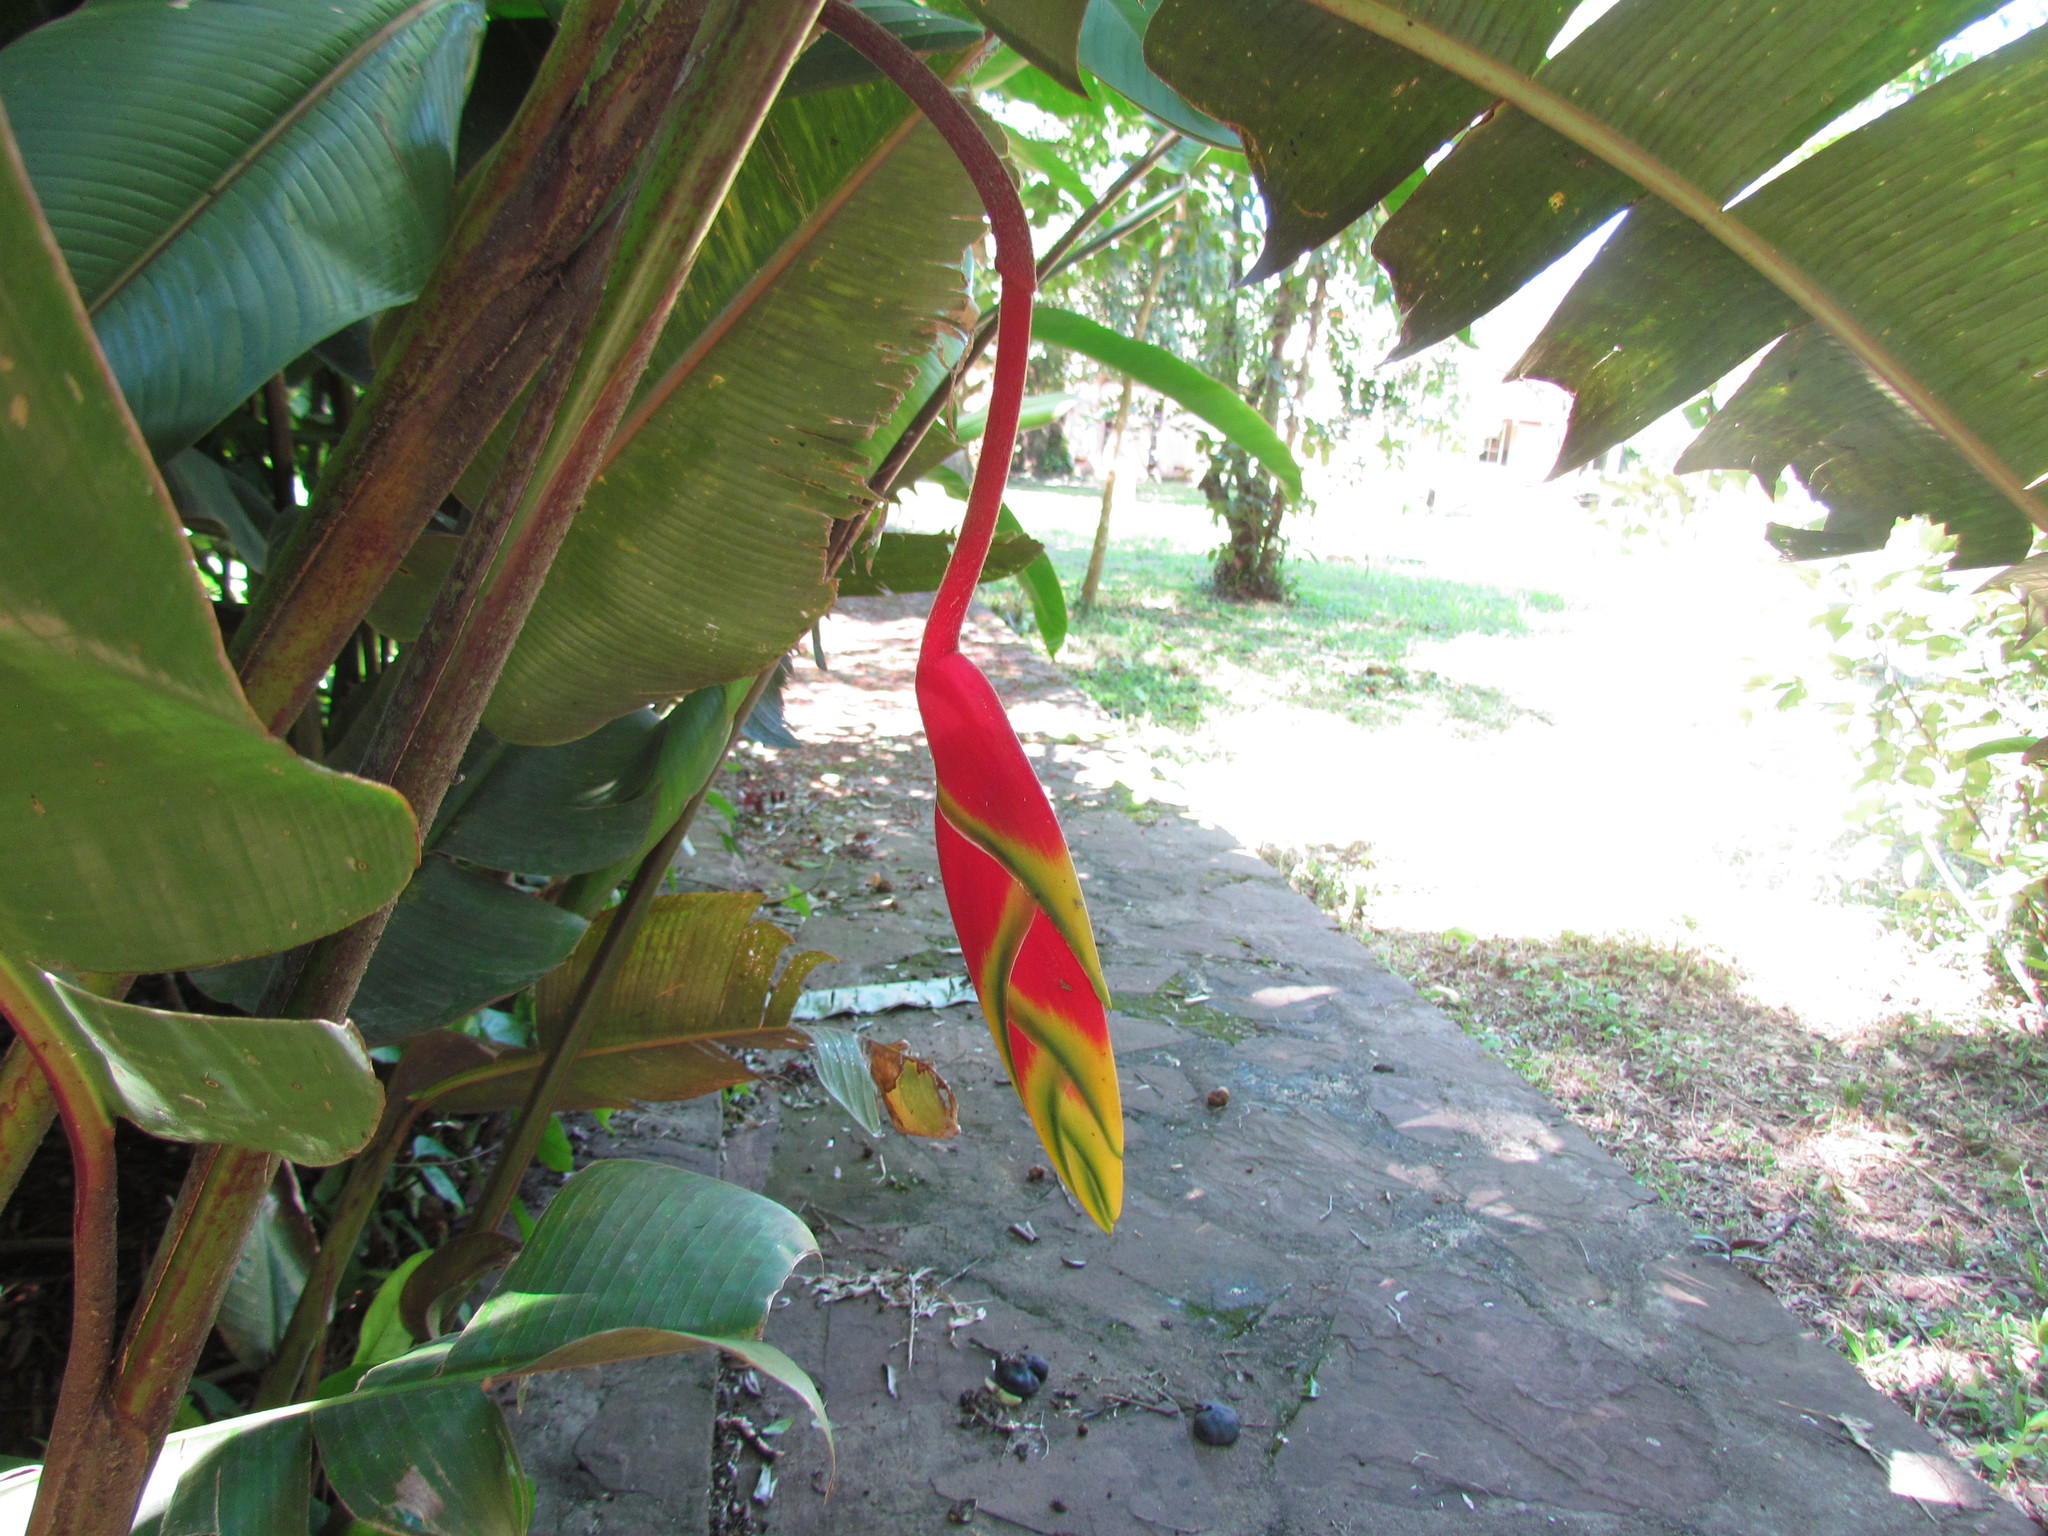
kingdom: Plantae
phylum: Tracheophyta
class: Liliopsida
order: Zingiberales
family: Heliconiaceae
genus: Heliconia
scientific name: Heliconia rostrata
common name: False bird of paradise
